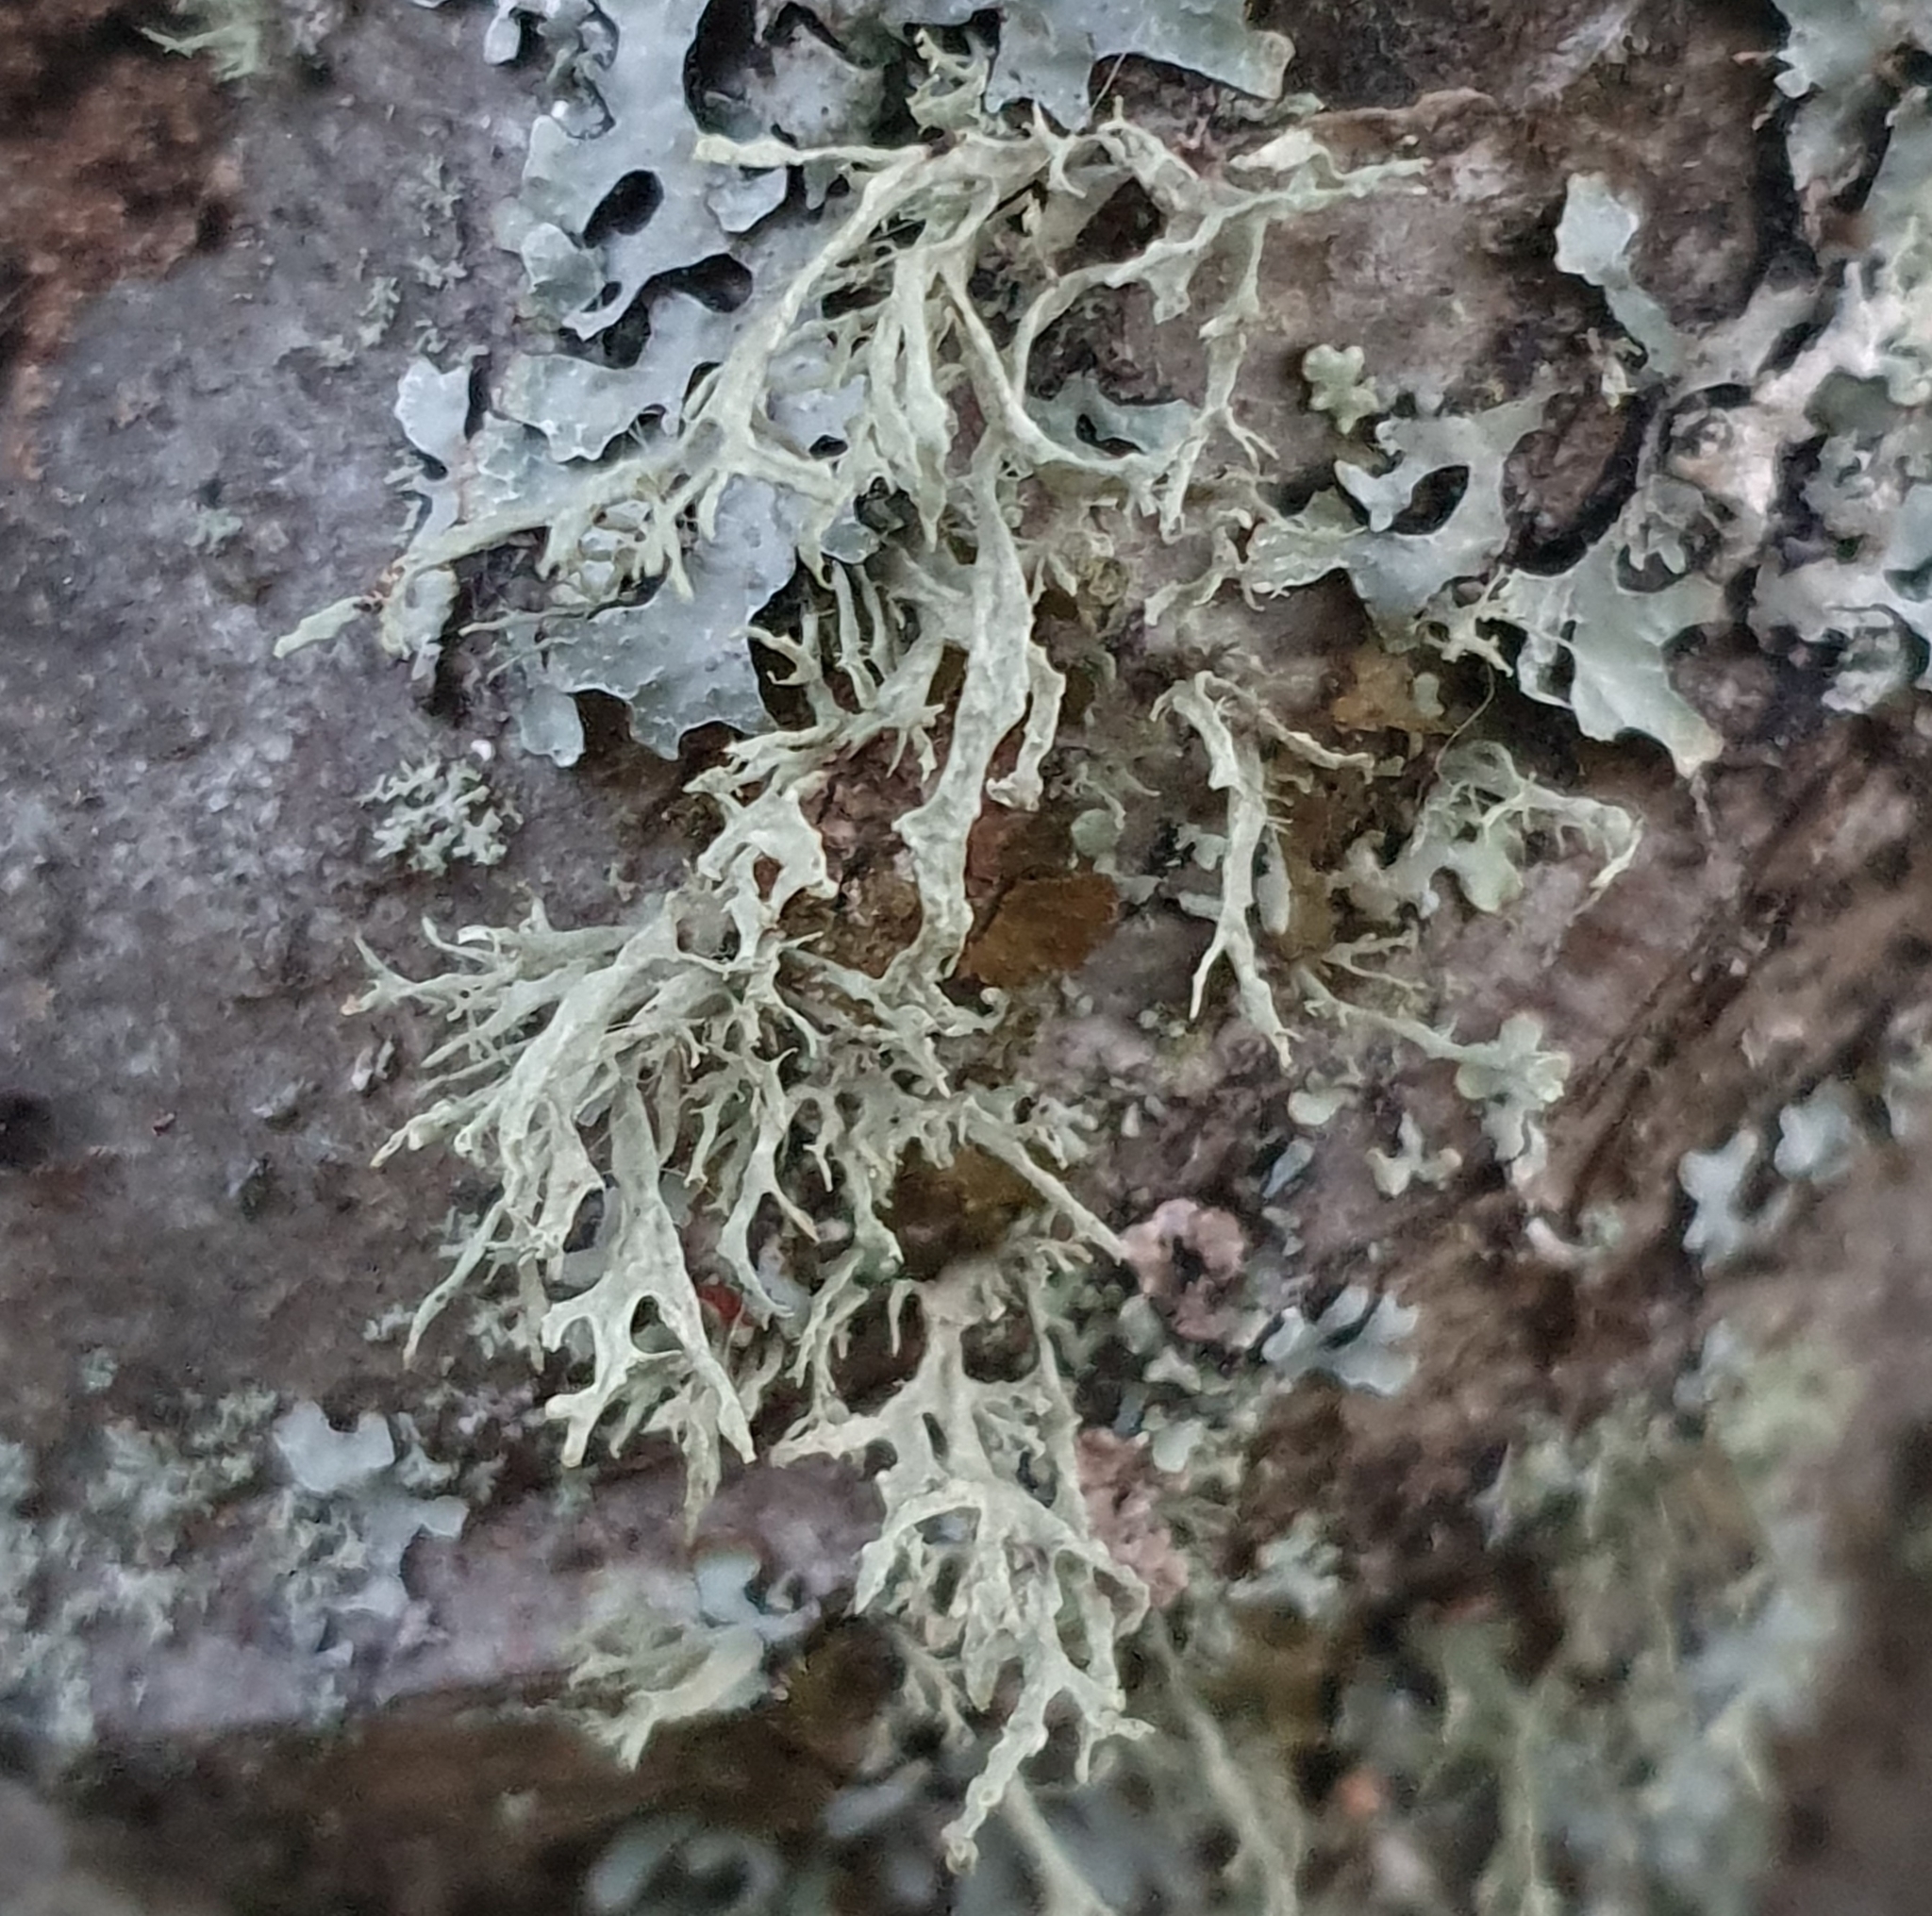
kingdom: Fungi
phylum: Ascomycota
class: Lecanoromycetes
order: Lecanorales
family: Ramalinaceae
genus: Ramalina
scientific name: Ramalina farinacea
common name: Farinose cartilage lichen
